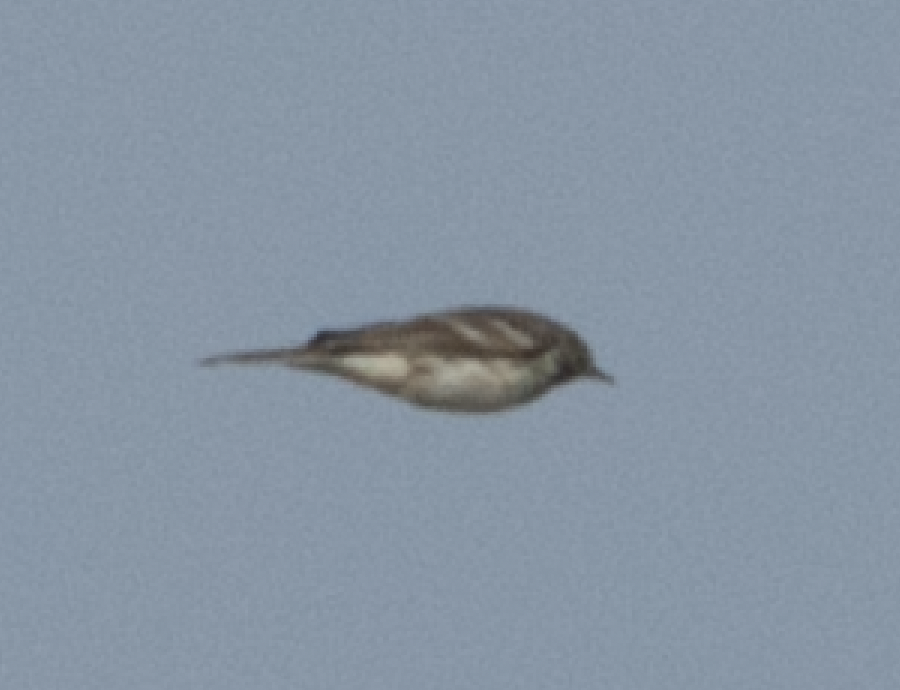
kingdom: Animalia
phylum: Chordata
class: Aves
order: Passeriformes
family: Motacillidae
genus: Anthus
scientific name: Anthus spinoletta
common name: Water pipit
